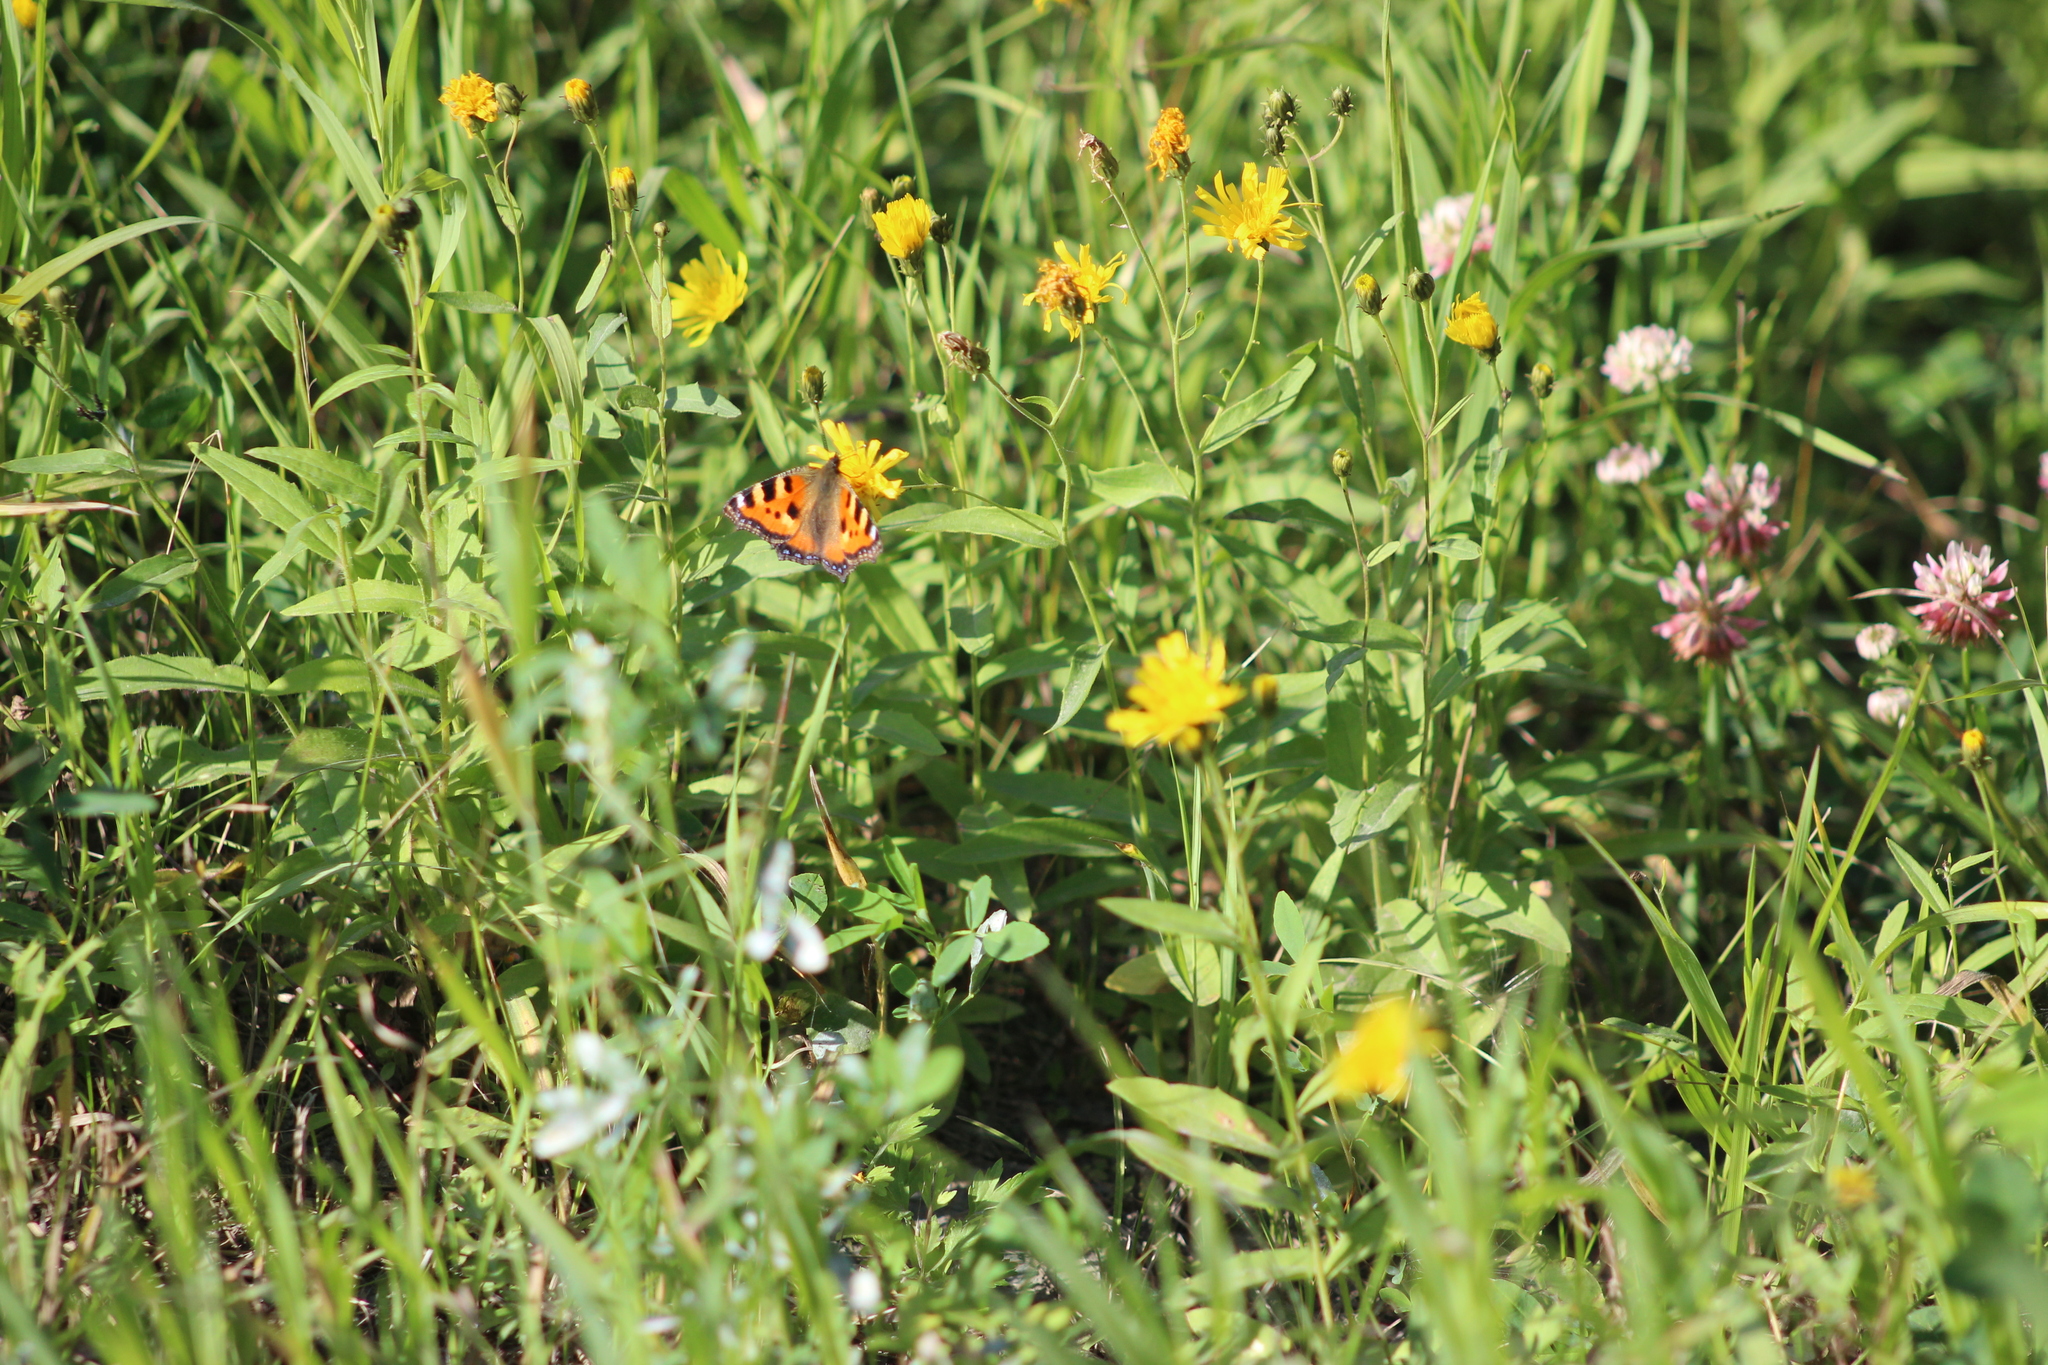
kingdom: Animalia
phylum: Arthropoda
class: Insecta
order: Lepidoptera
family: Nymphalidae
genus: Aglais
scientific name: Aglais urticae
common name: Small tortoiseshell
